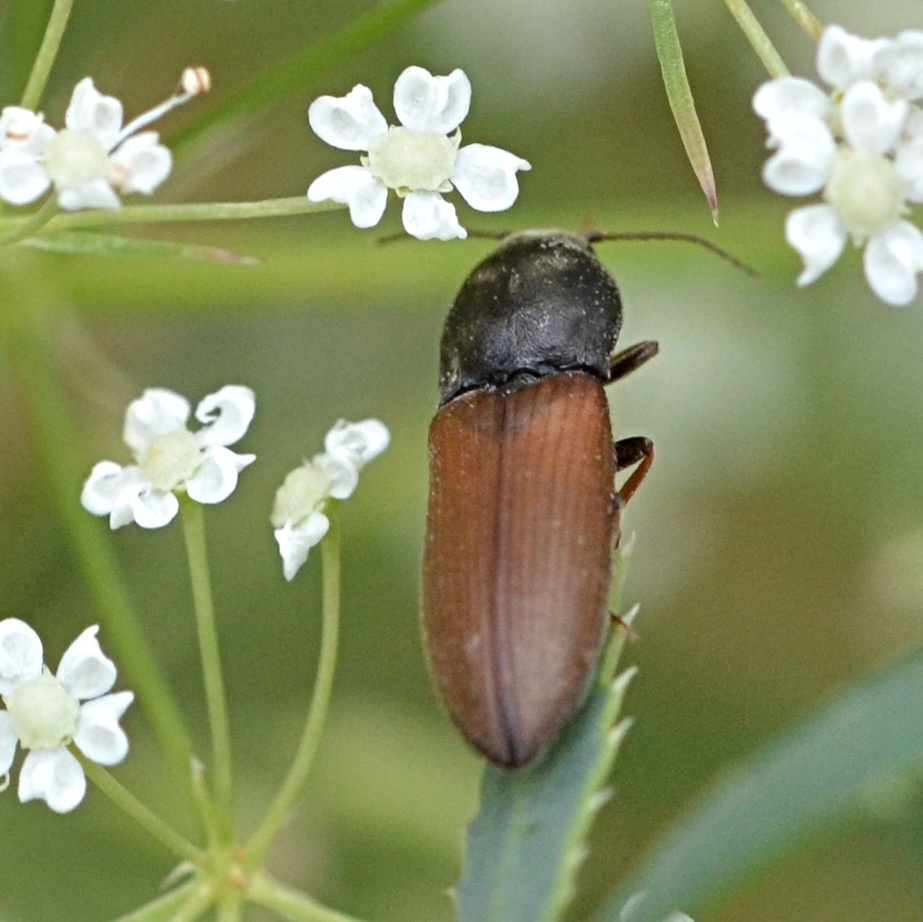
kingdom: Animalia
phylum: Arthropoda
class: Insecta
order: Coleoptera
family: Elateridae
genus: Agriotes
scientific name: Agriotes ustulatus
